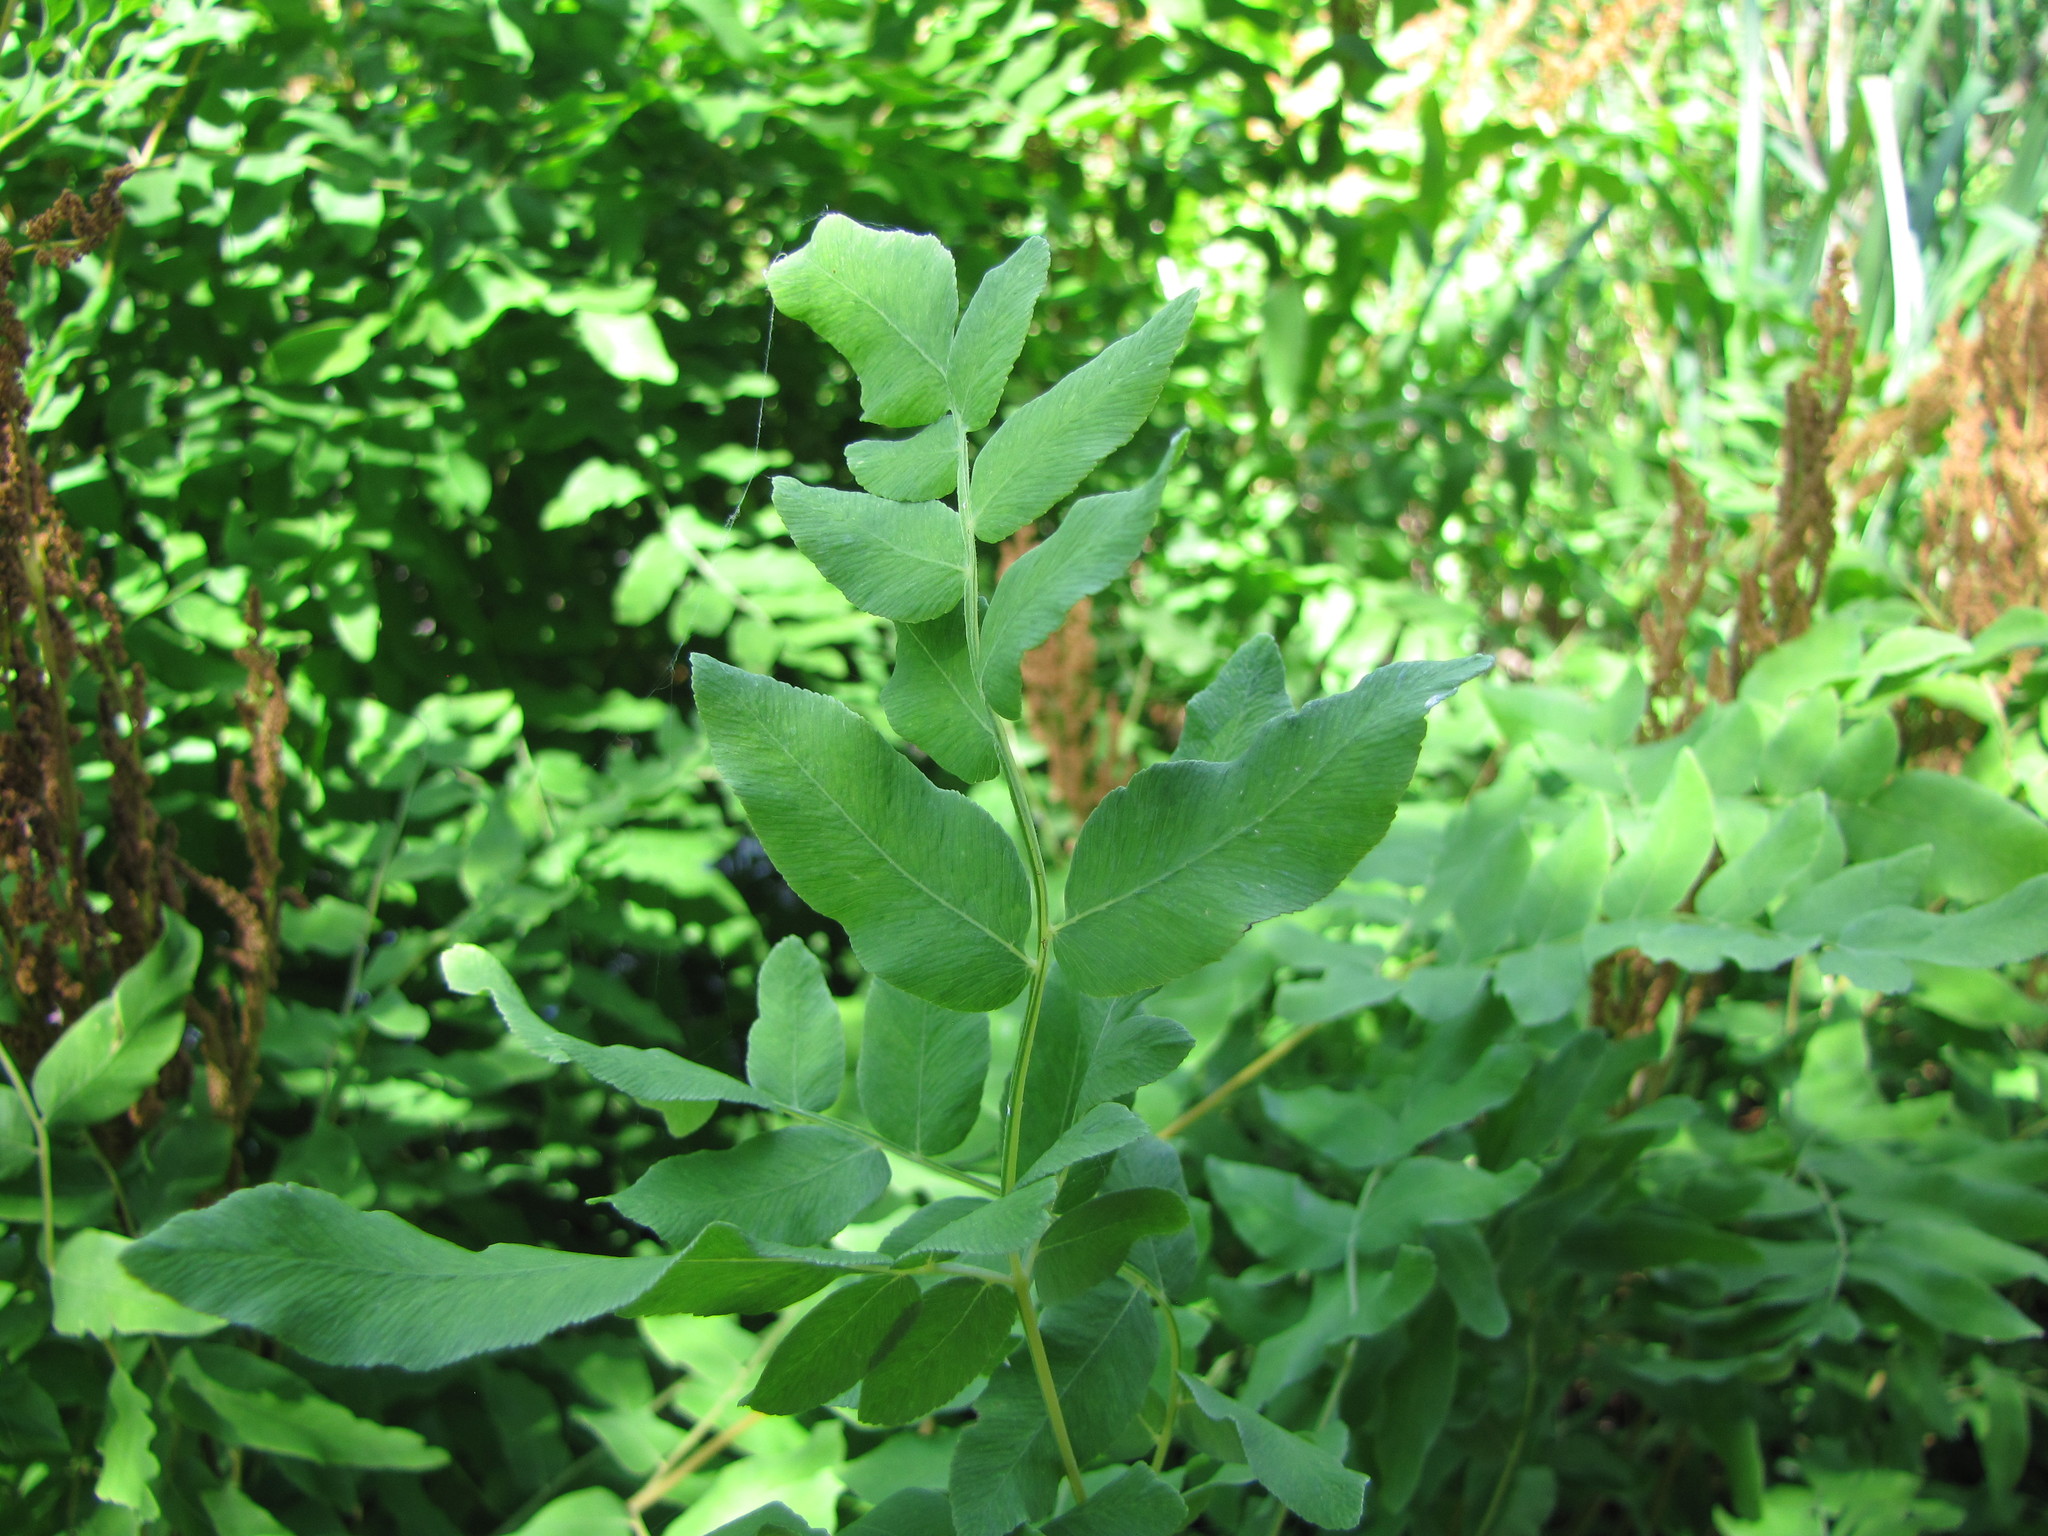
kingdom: Plantae
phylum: Tracheophyta
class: Polypodiopsida
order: Osmundales
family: Osmundaceae
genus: Osmunda
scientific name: Osmunda spectabilis
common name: American royal fern
